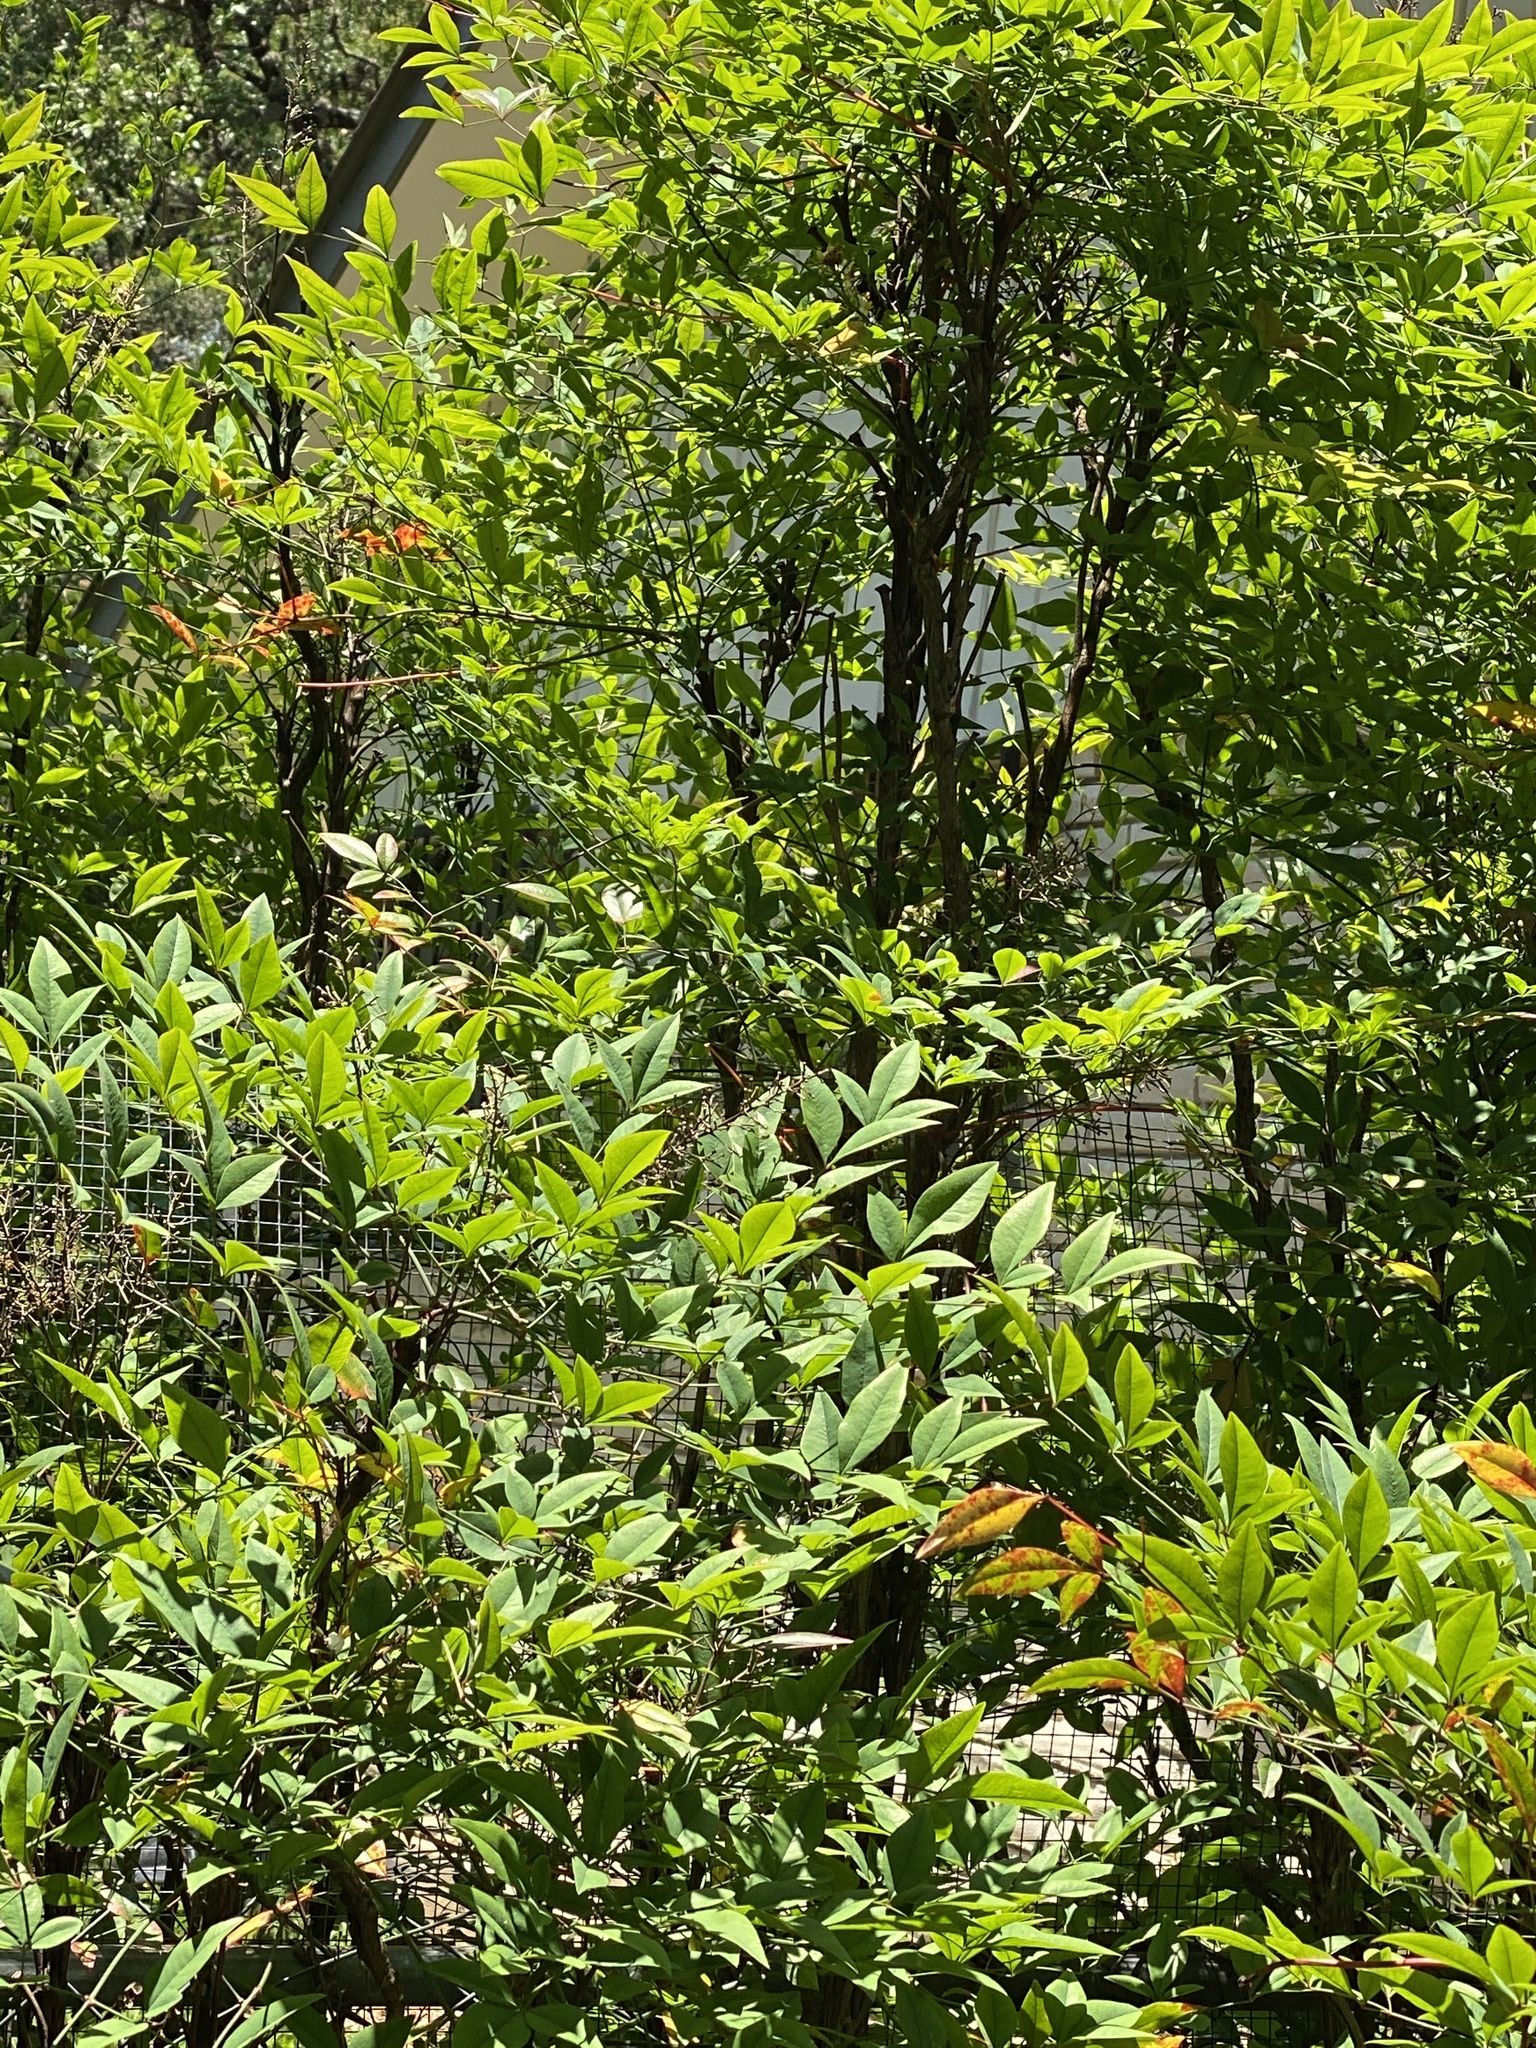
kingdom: Plantae
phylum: Tracheophyta
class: Magnoliopsida
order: Ranunculales
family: Berberidaceae
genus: Nandina
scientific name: Nandina domestica
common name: Sacred bamboo
